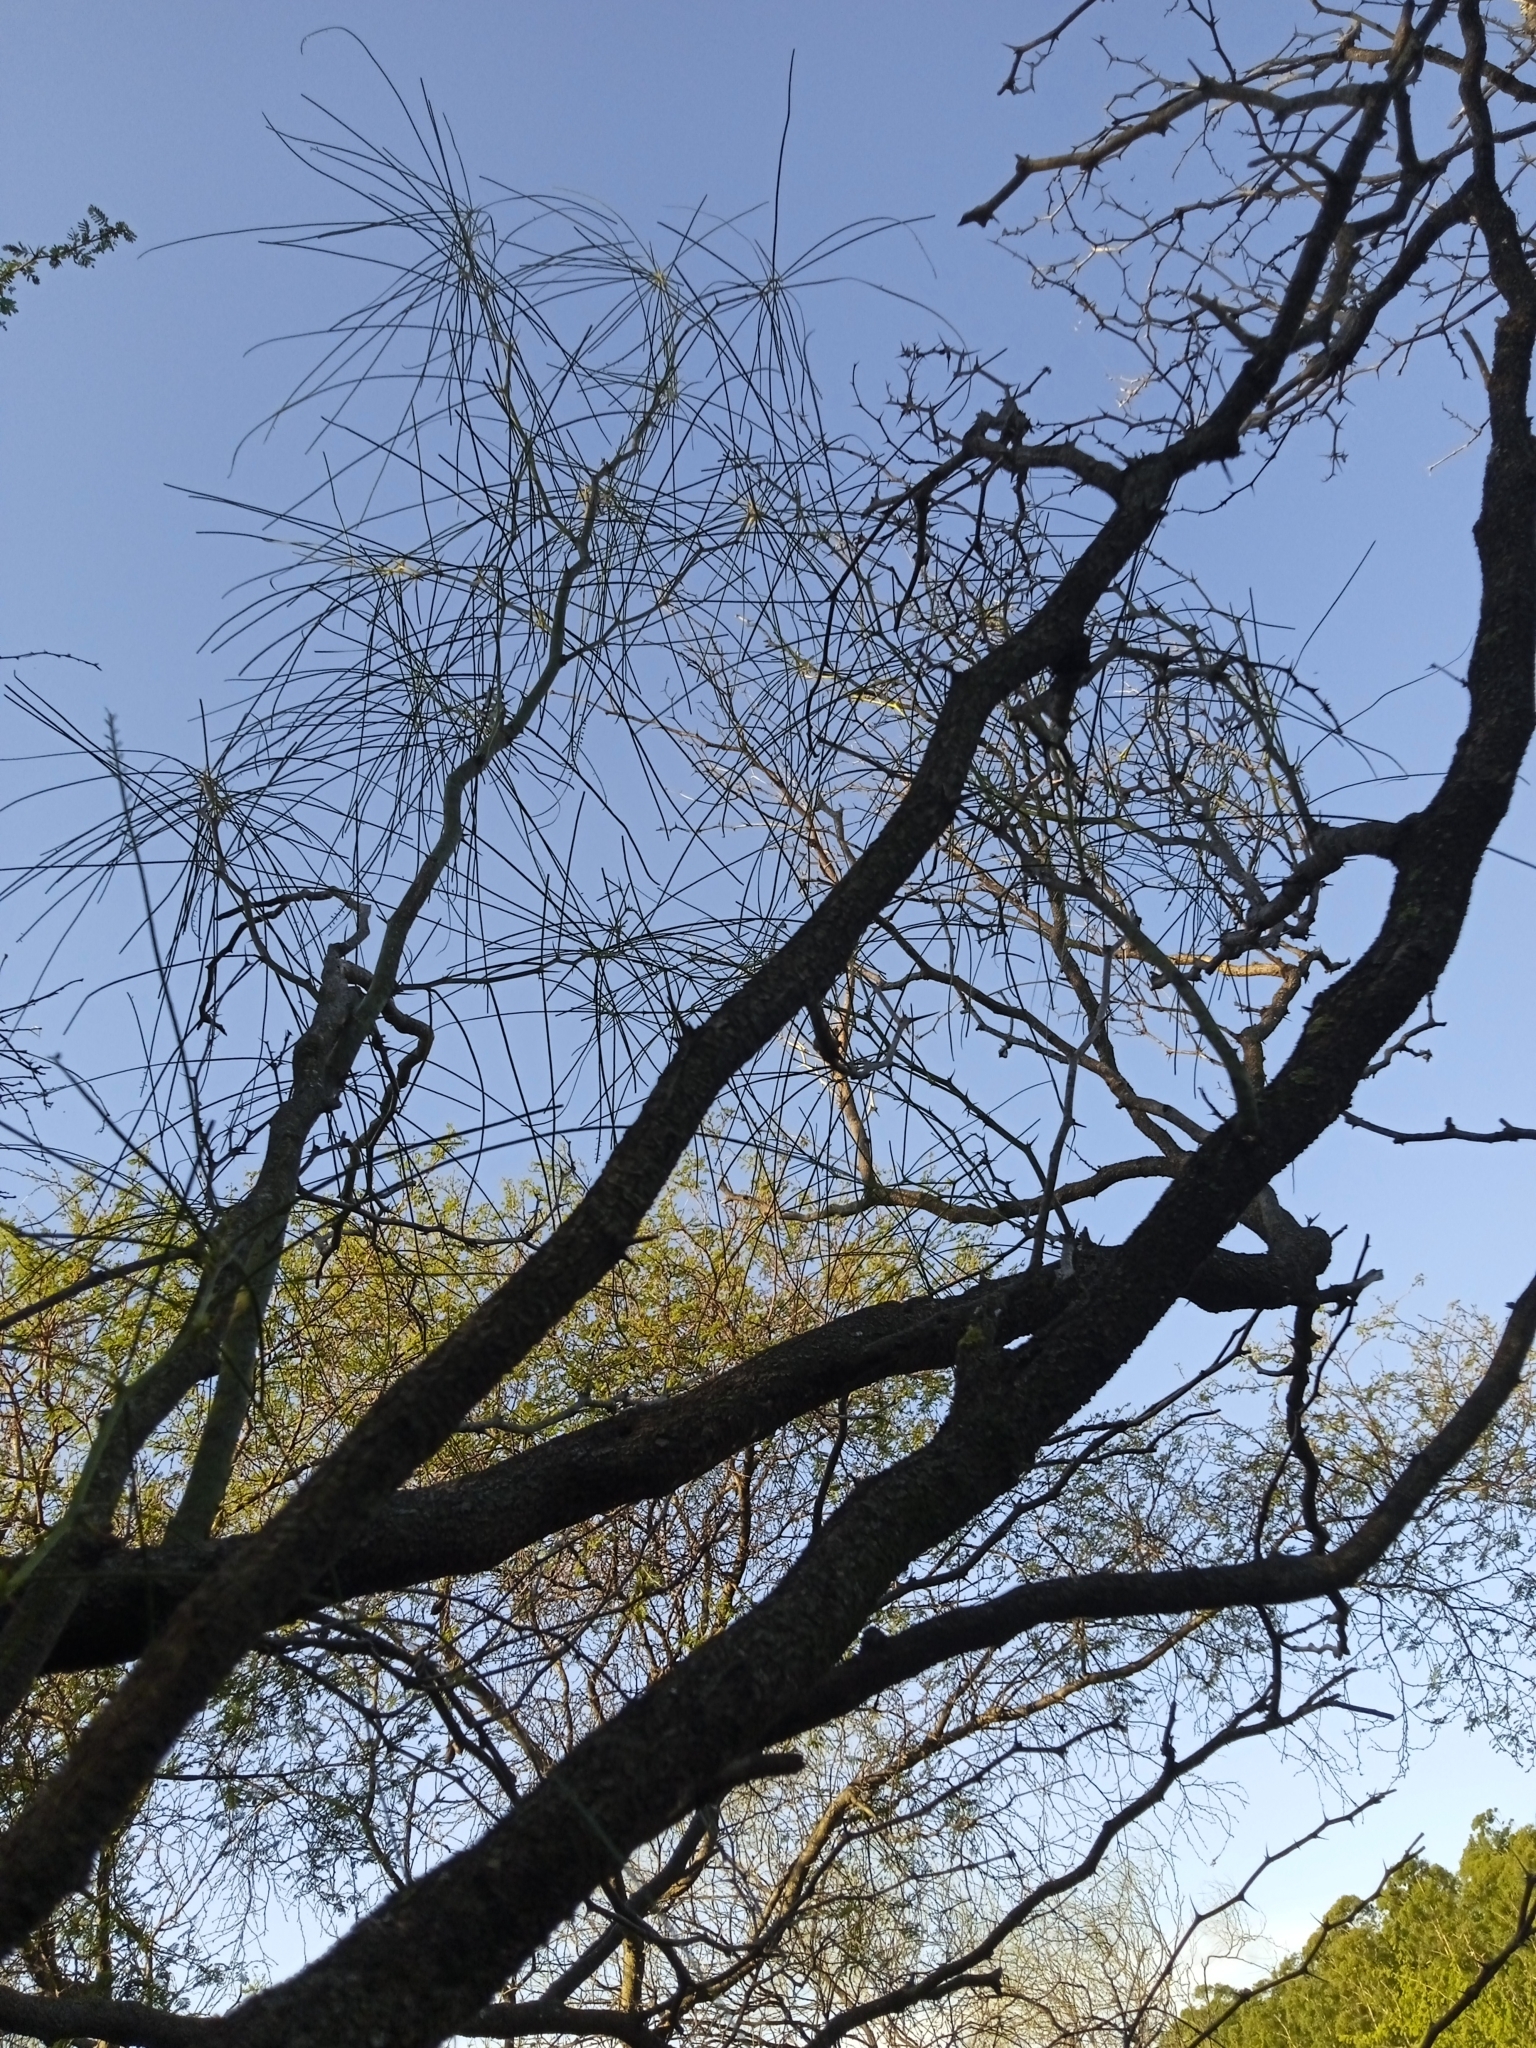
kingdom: Plantae
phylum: Tracheophyta
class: Magnoliopsida
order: Fabales
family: Fabaceae
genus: Parkinsonia
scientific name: Parkinsonia aculeata
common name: Jerusalem thorn
